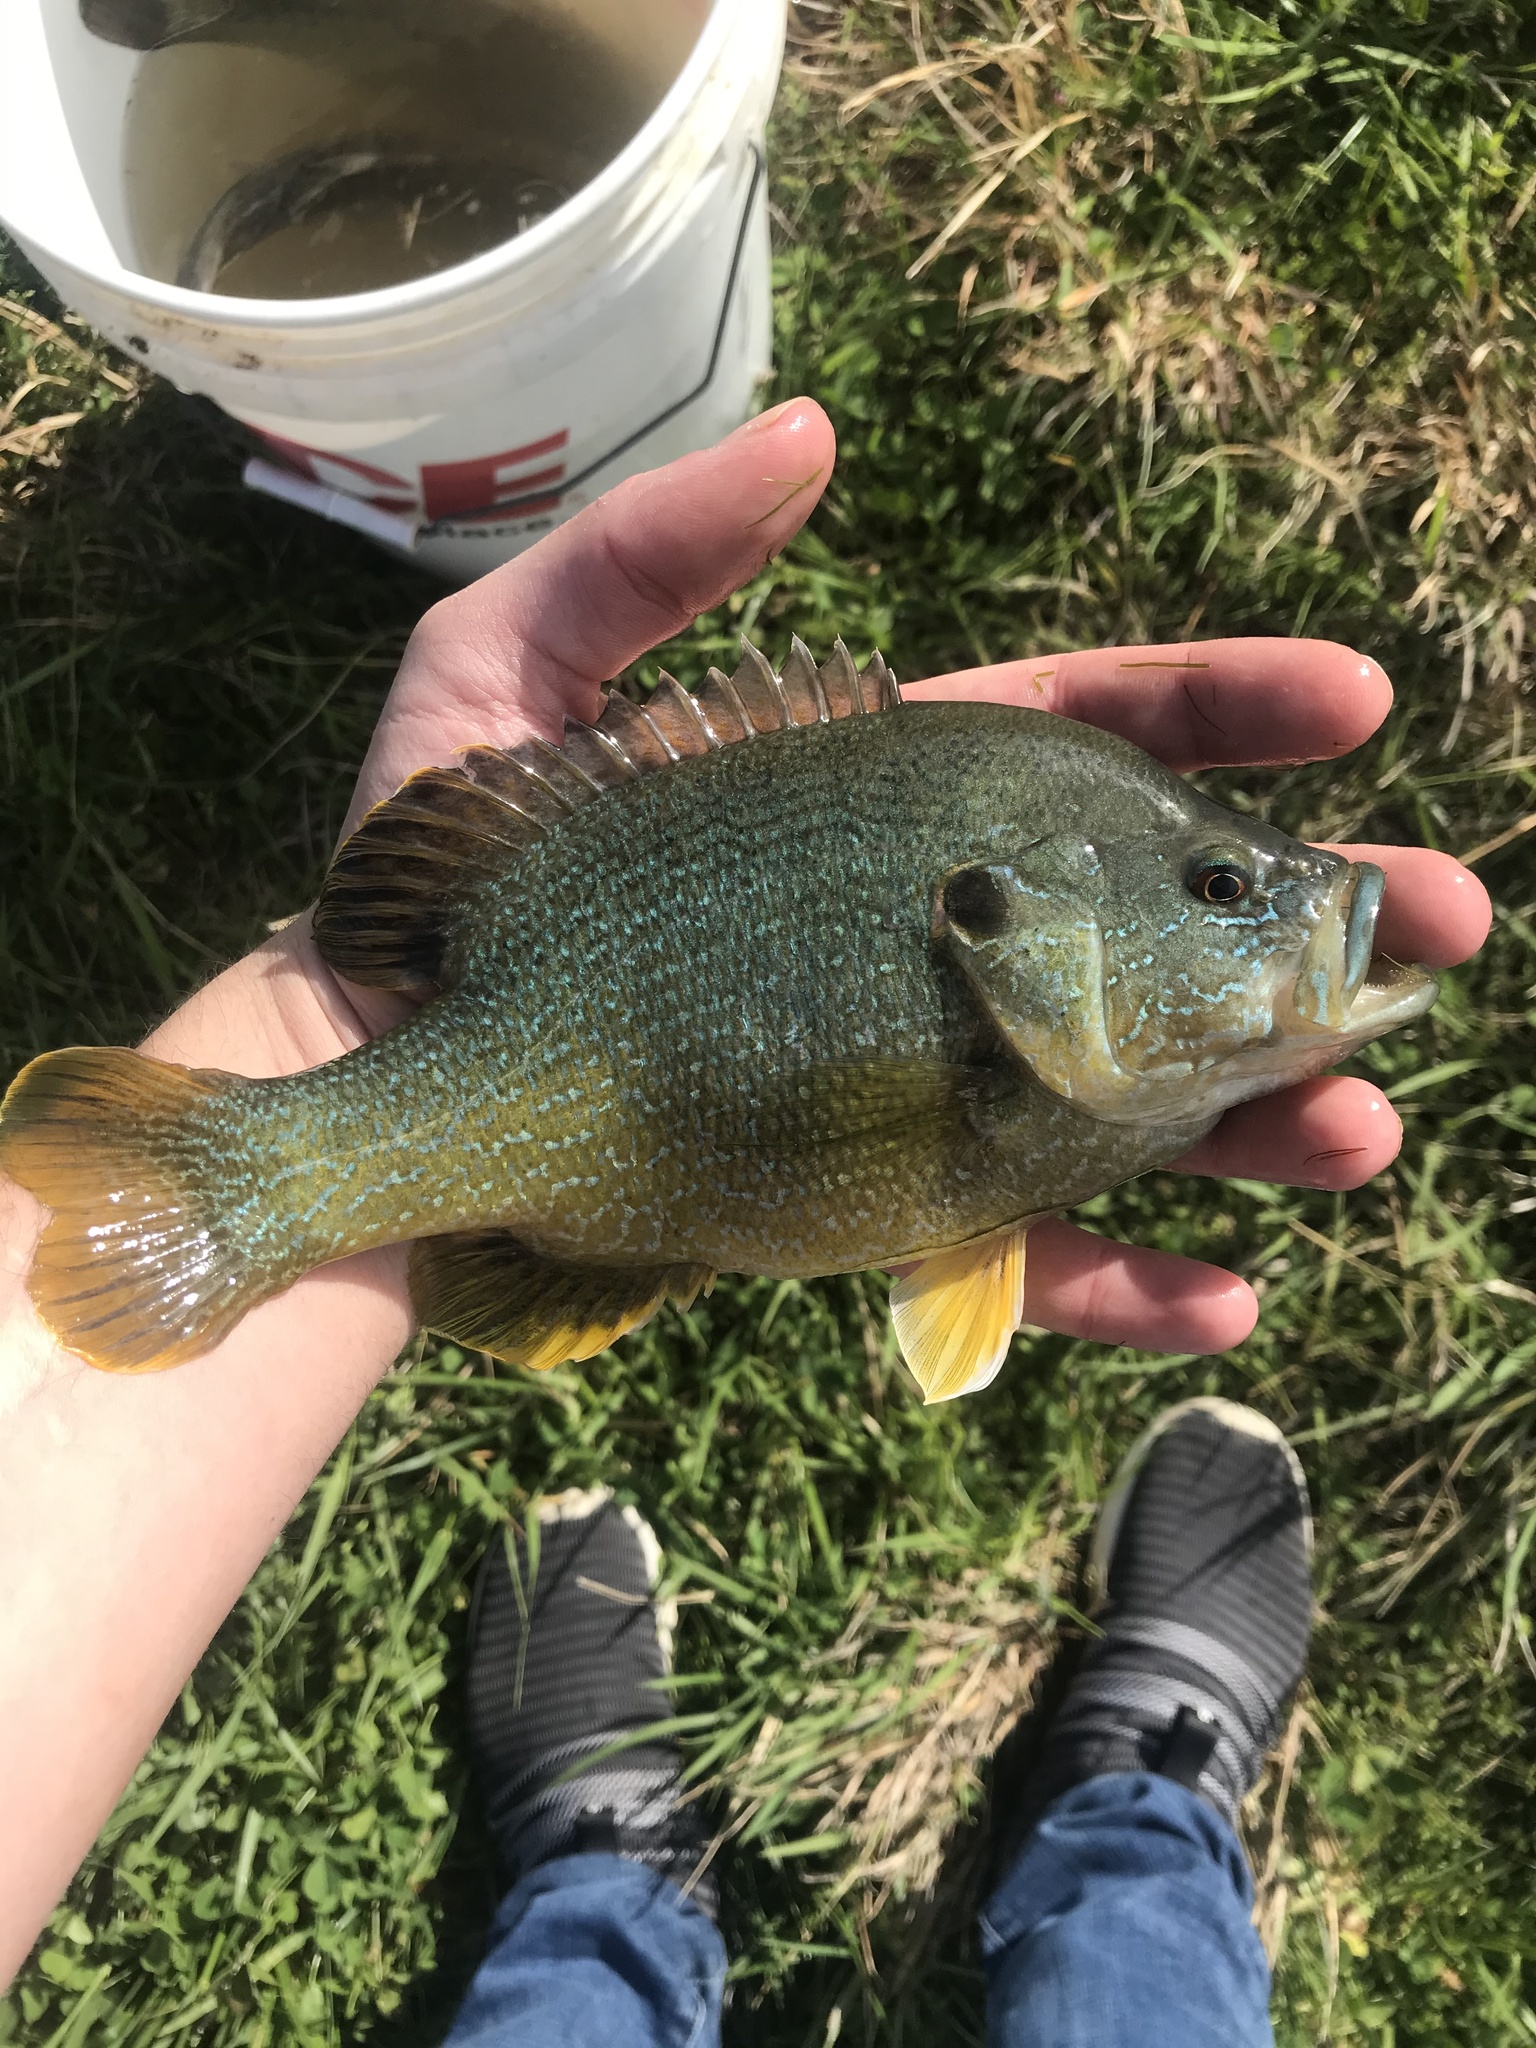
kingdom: Animalia
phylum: Chordata
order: Perciformes
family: Centrarchidae
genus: Lepomis
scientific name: Lepomis cyanellus
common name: Green sunfish
